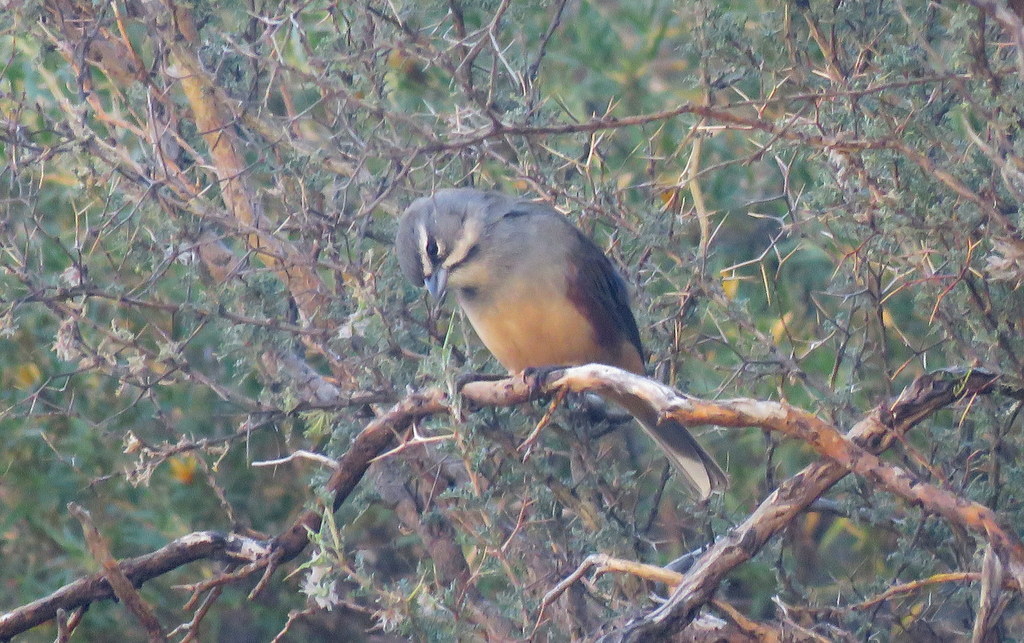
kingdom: Animalia
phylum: Chordata
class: Aves
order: Passeriformes
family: Thraupidae
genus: Poospizopsis
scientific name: Poospizopsis hypocondria
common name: Rufous-sided warbling-finch
